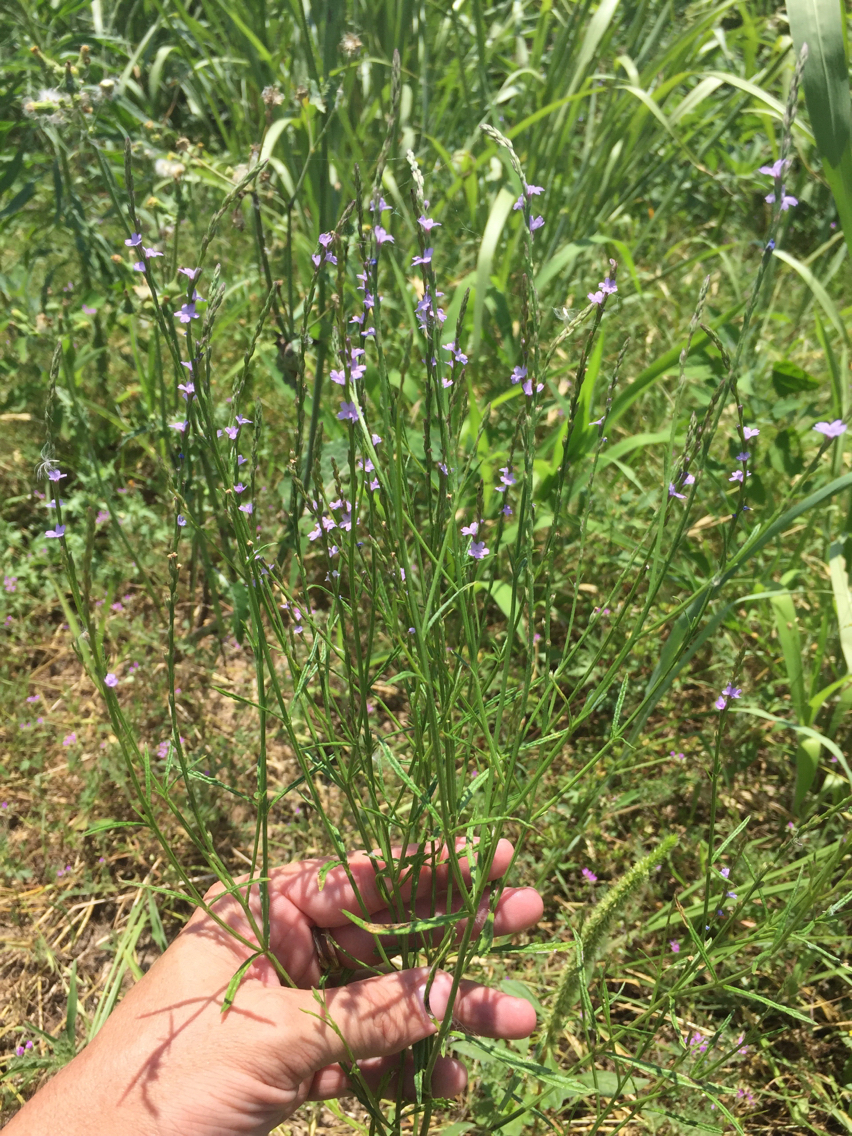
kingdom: Plantae
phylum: Tracheophyta
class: Magnoliopsida
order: Lamiales
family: Verbenaceae
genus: Verbena
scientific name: Verbena halei
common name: Texas vervain
